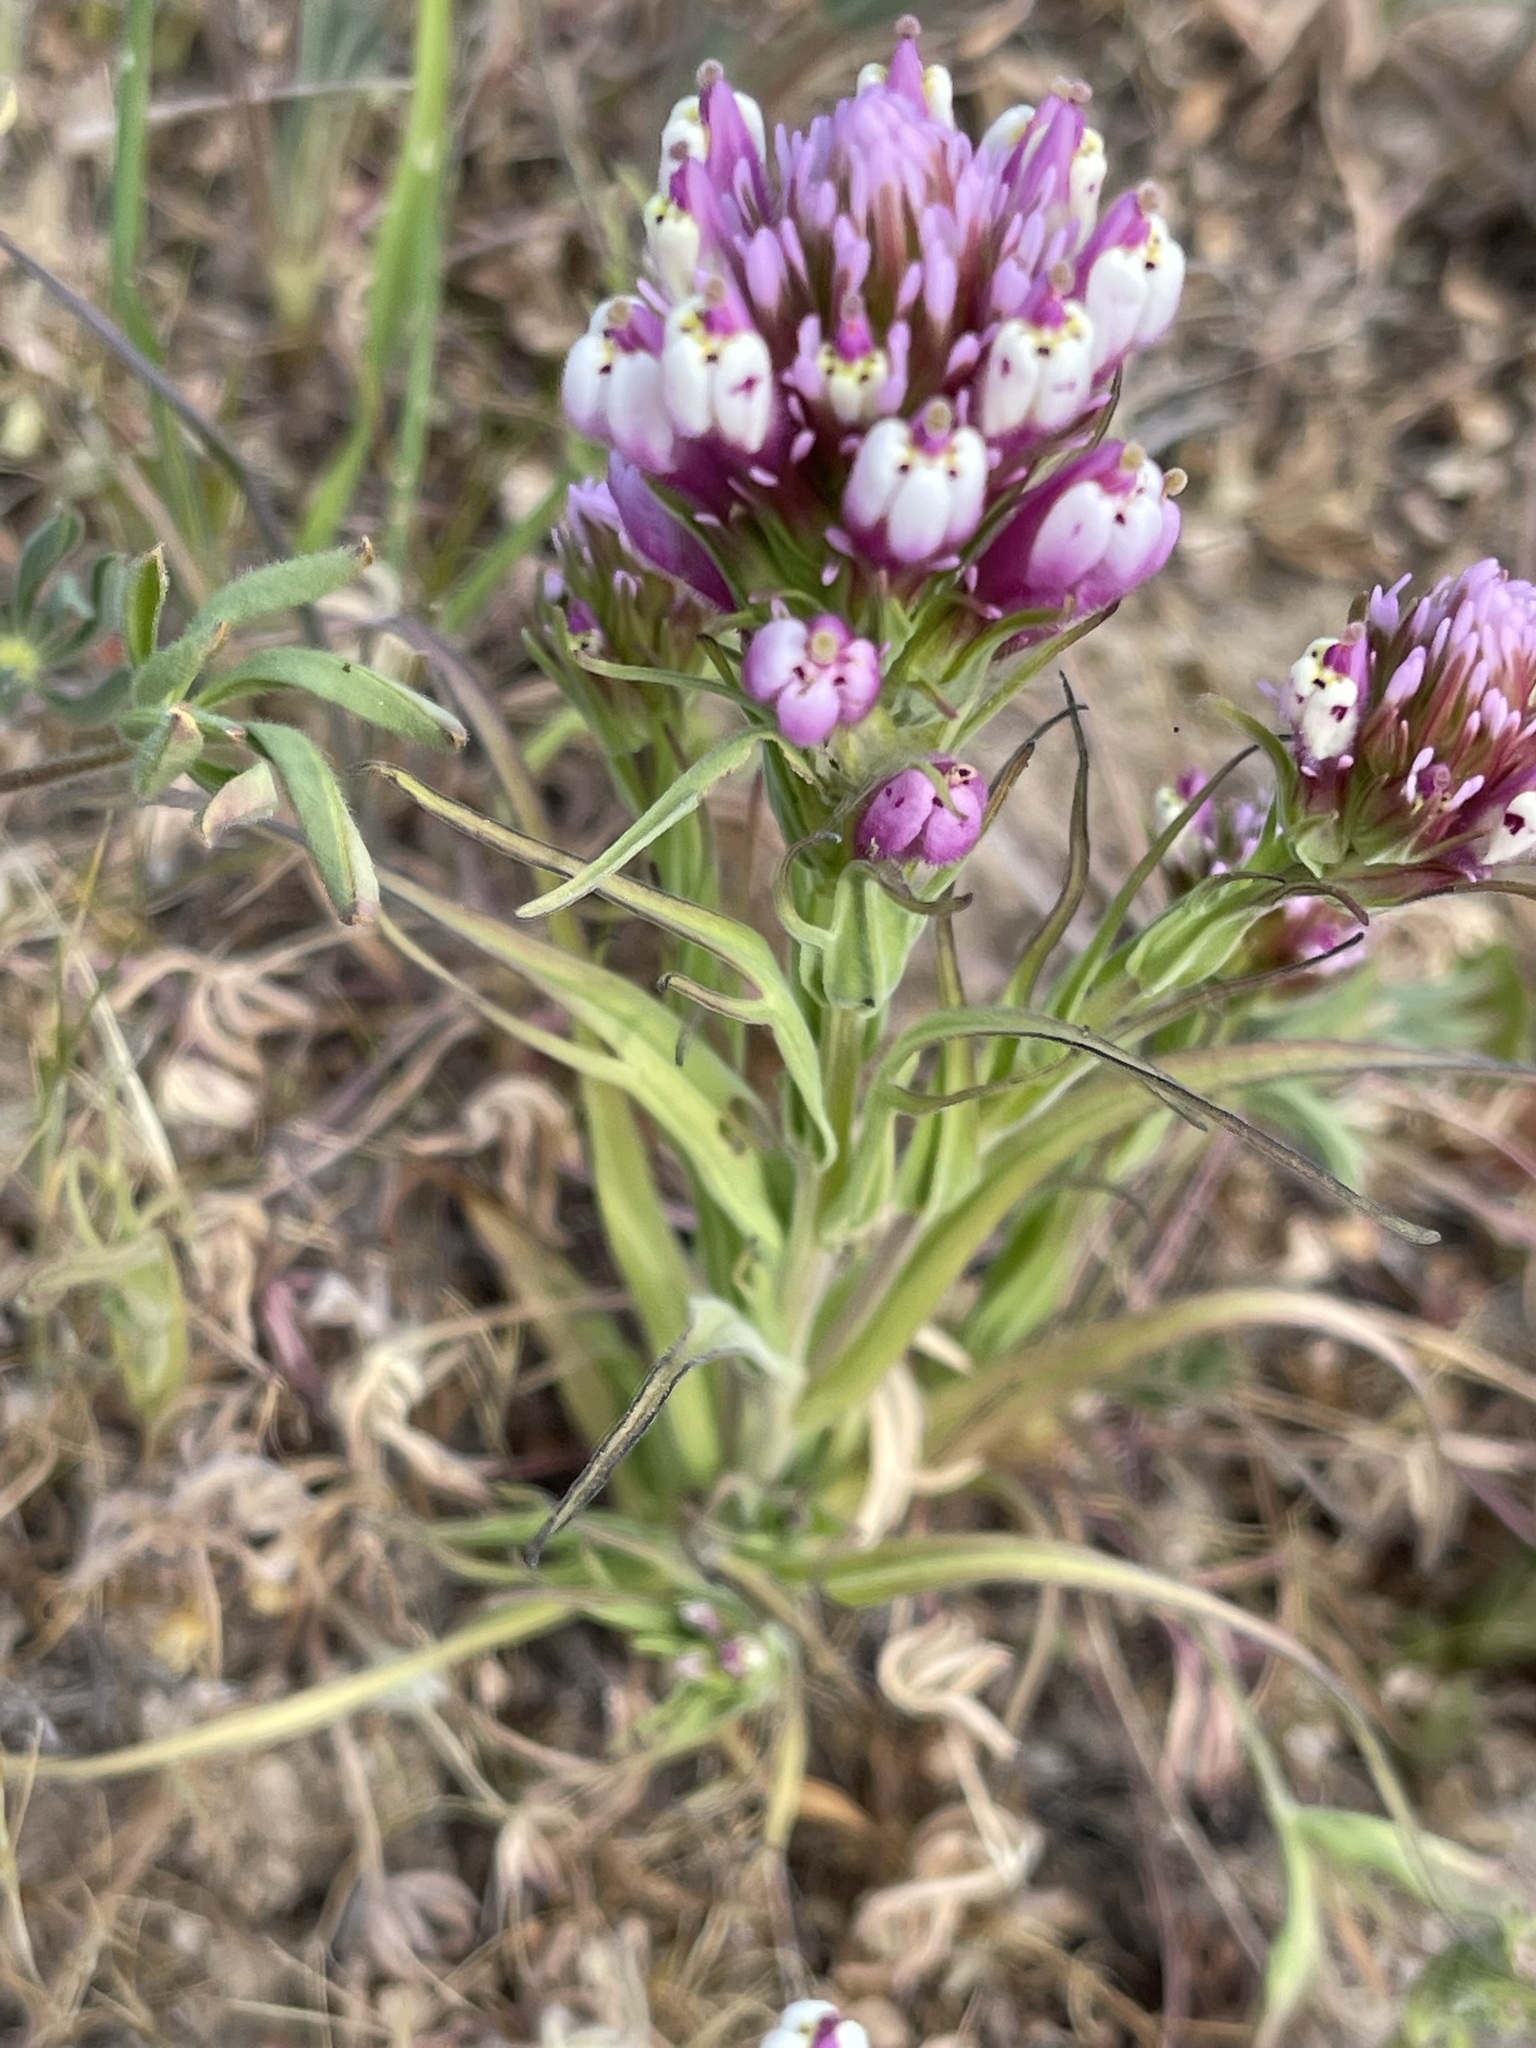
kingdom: Plantae
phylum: Tracheophyta
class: Magnoliopsida
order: Lamiales
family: Orobanchaceae
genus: Castilleja
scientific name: Castilleja densiflora
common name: Dense-flower indian paintbrush
